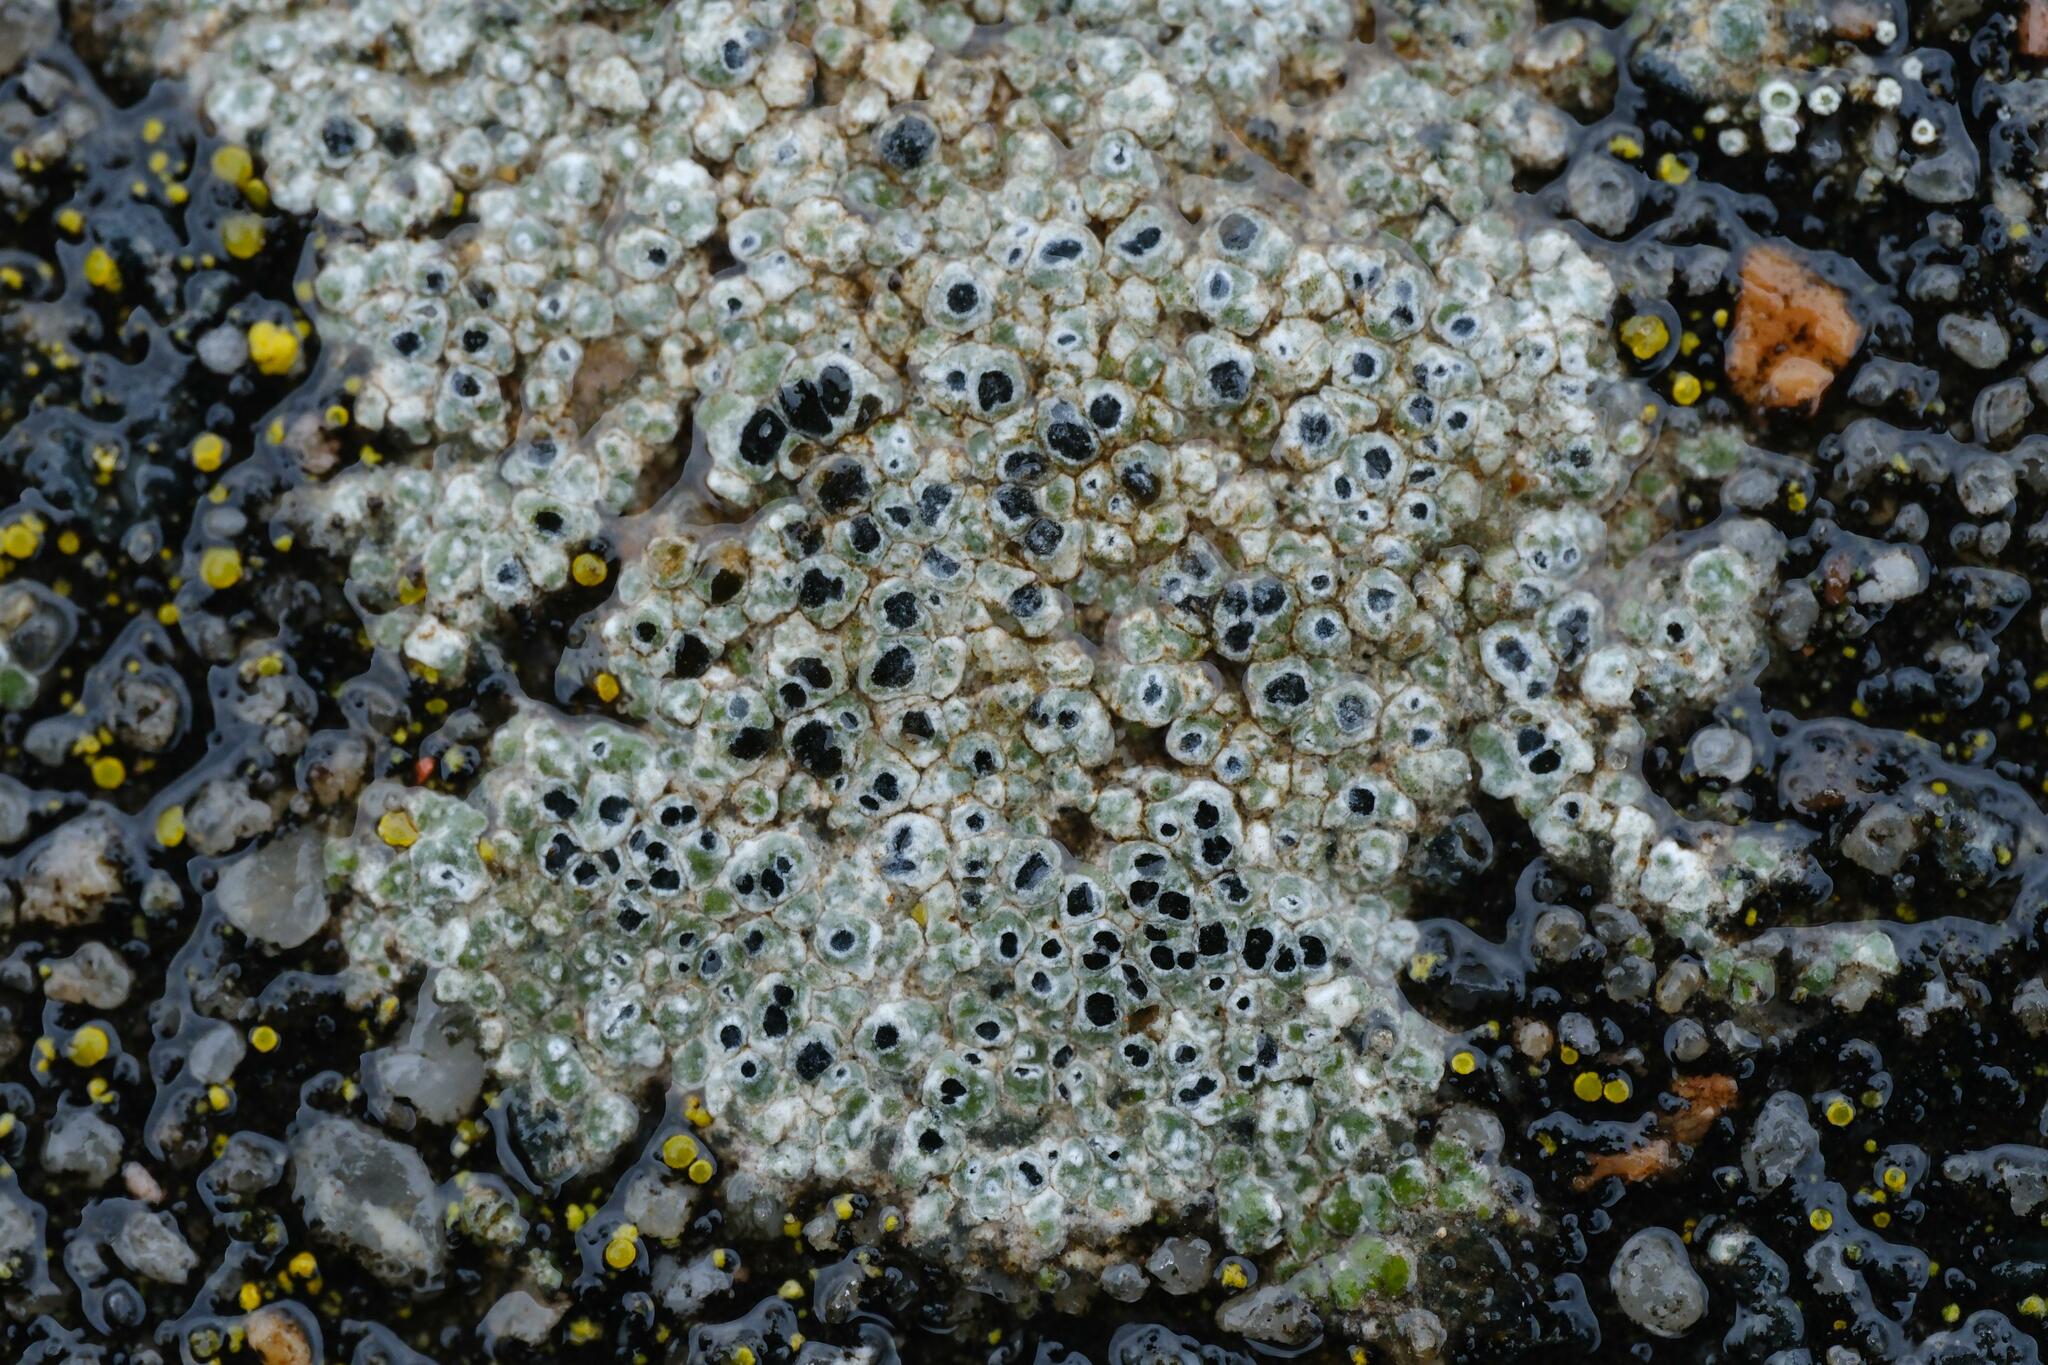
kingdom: Fungi
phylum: Ascomycota
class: Lecanoromycetes
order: Pertusariales
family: Megasporaceae
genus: Circinaria
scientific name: Circinaria contorta
